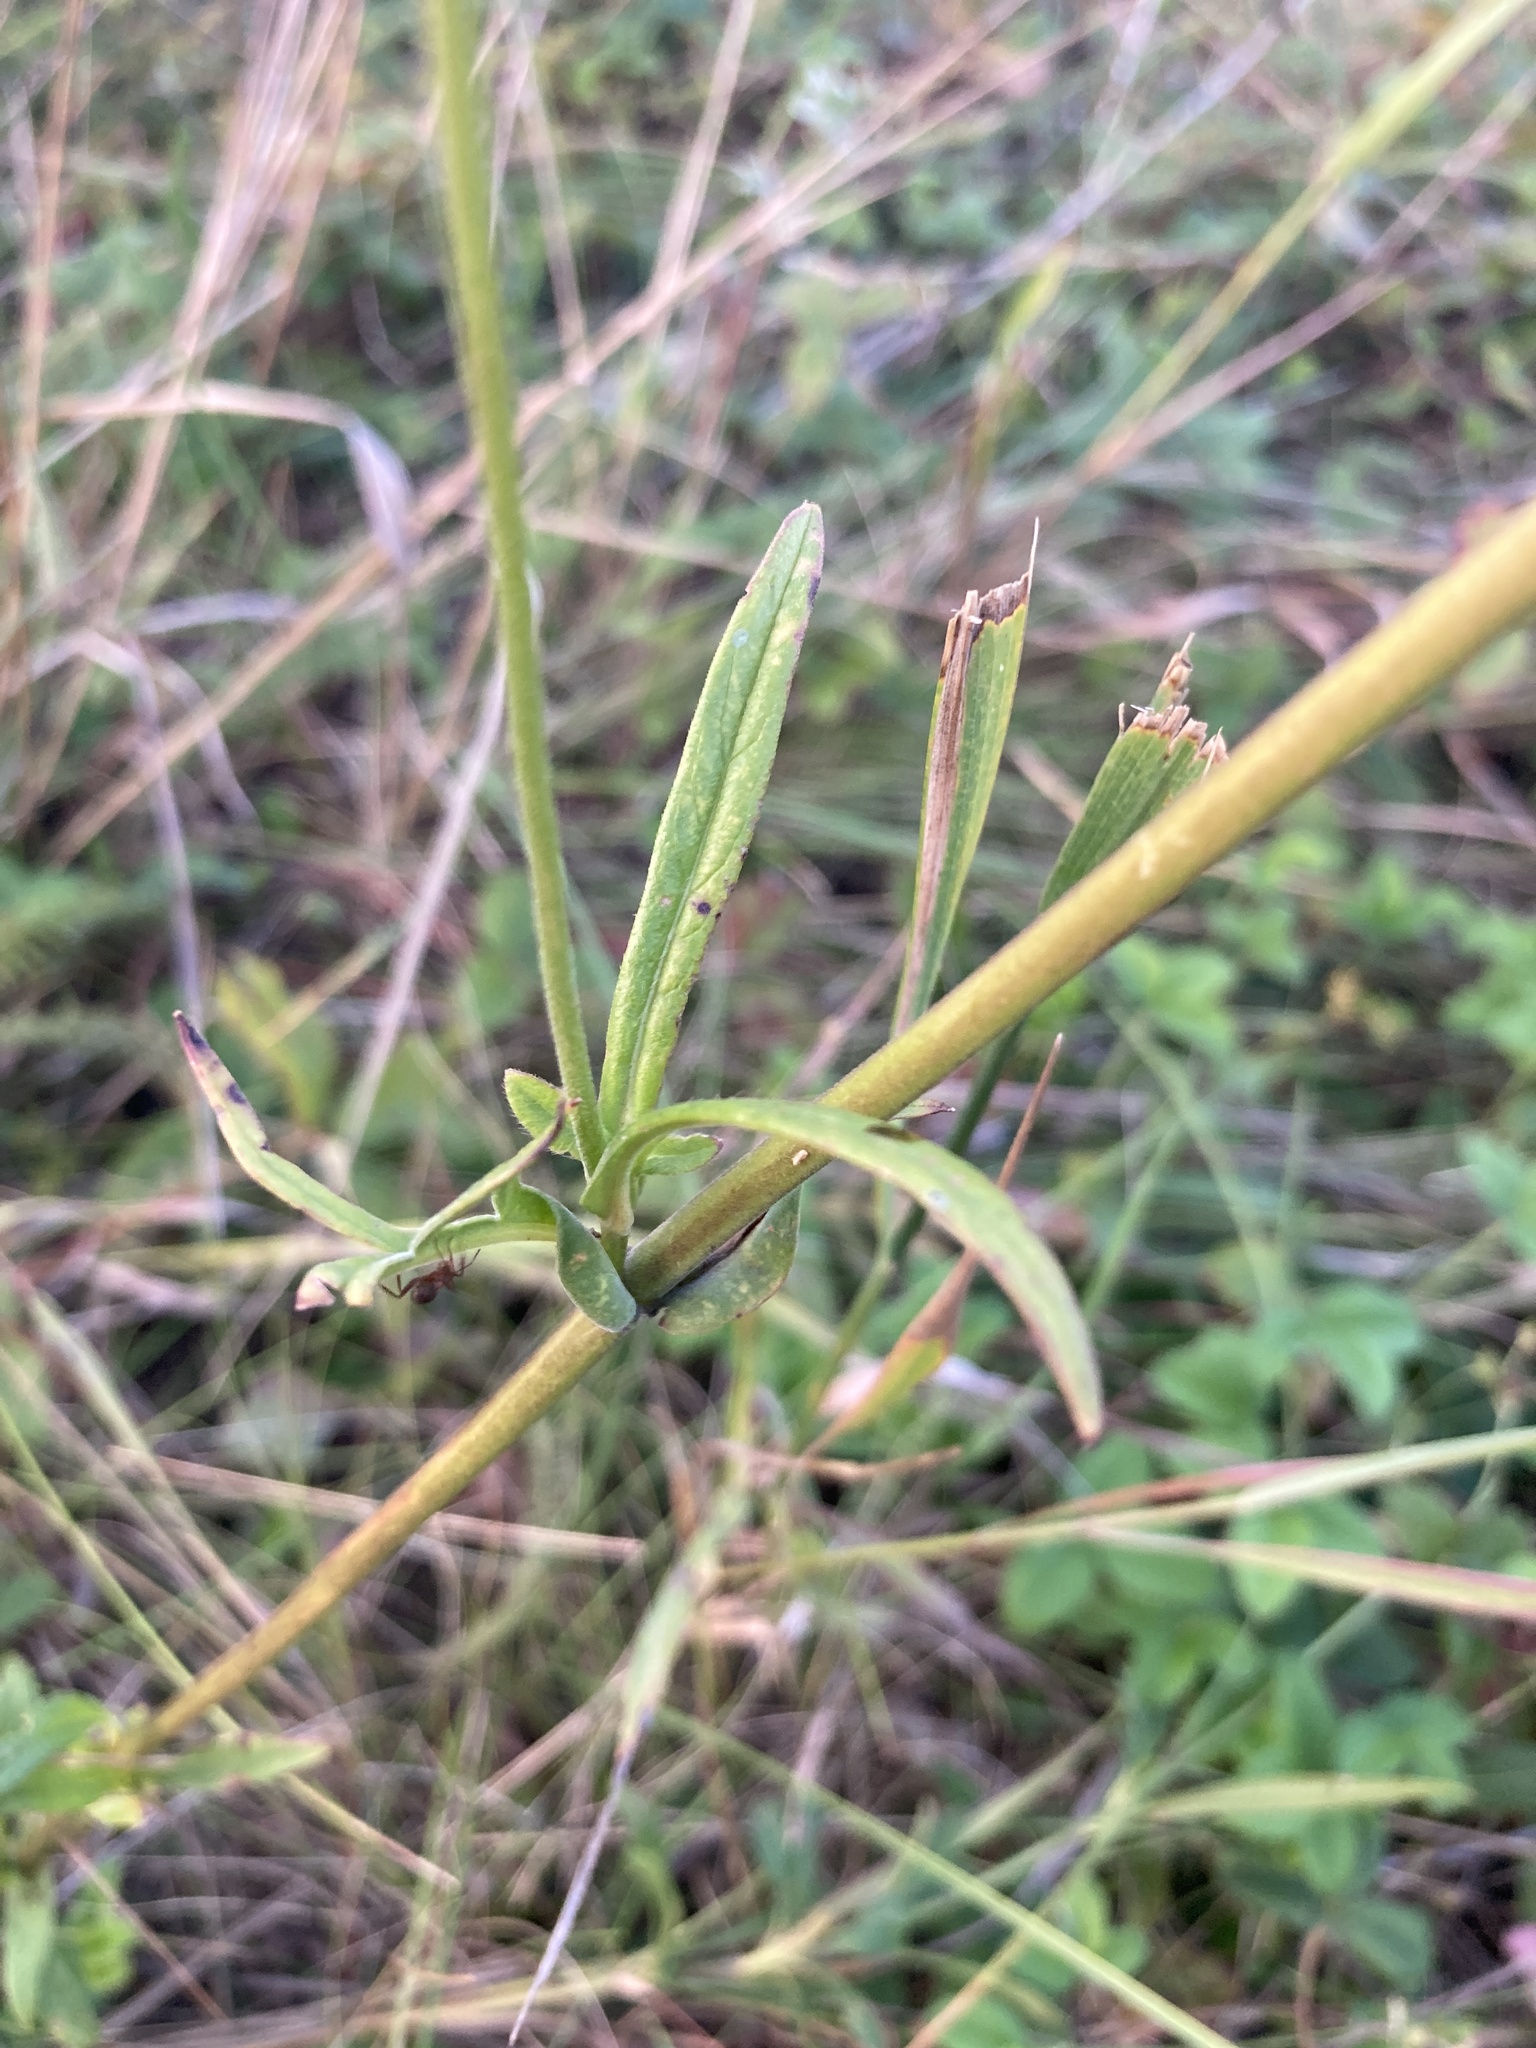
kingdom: Plantae
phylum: Tracheophyta
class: Magnoliopsida
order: Dipsacales
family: Caprifoliaceae
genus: Knautia
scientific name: Knautia arvensis
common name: Field scabiosa
